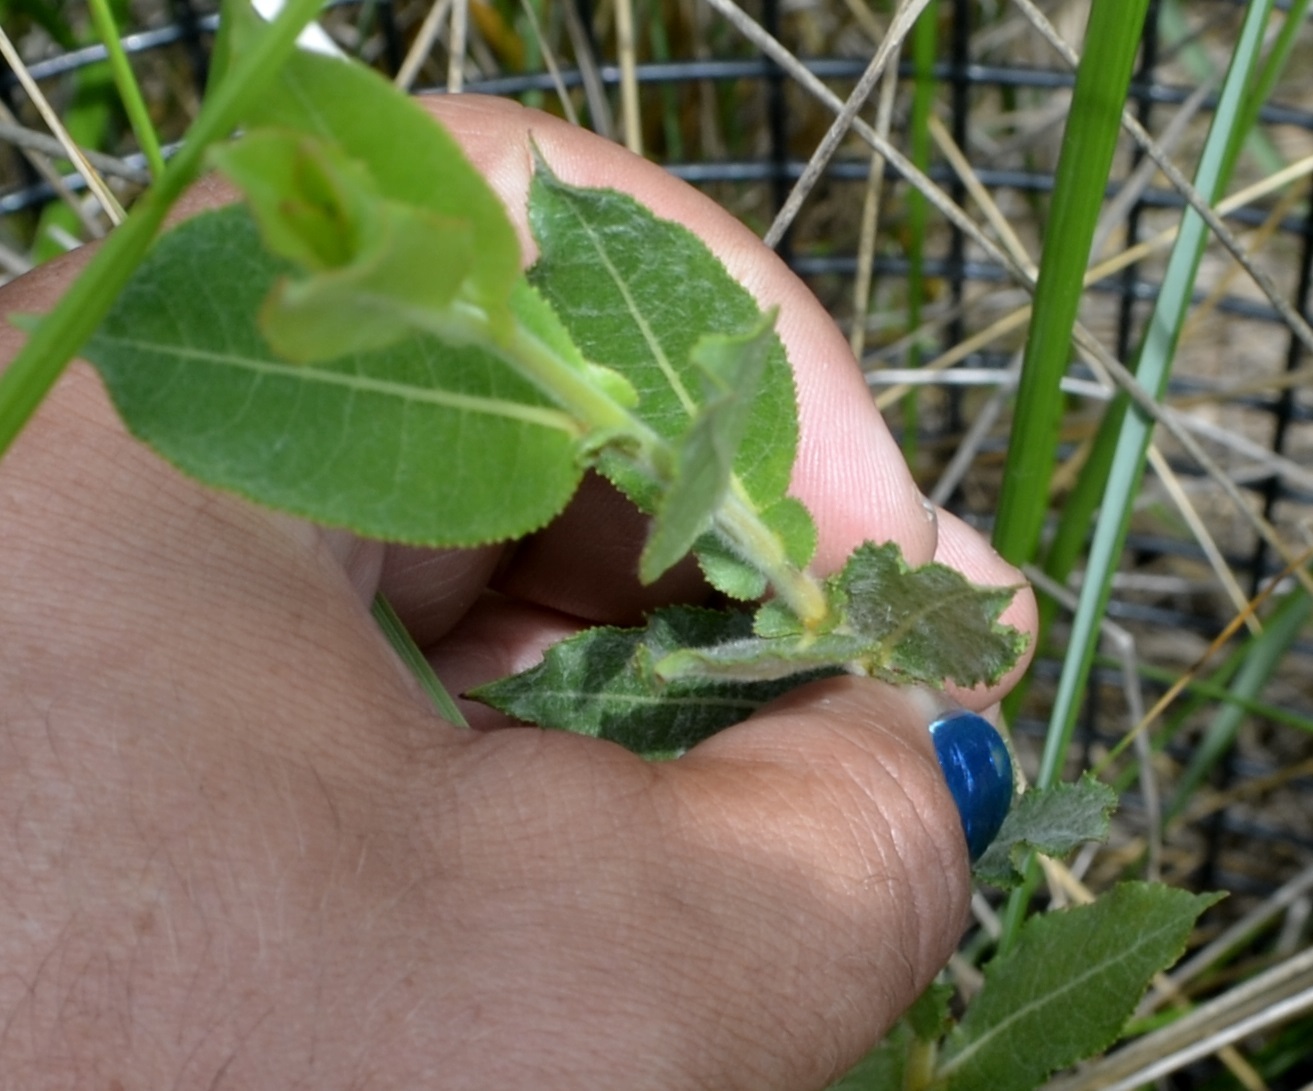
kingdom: Plantae
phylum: Tracheophyta
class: Magnoliopsida
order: Malpighiales
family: Salicaceae
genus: Salix
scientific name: Salix cordata
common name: Heart-leaf willow
